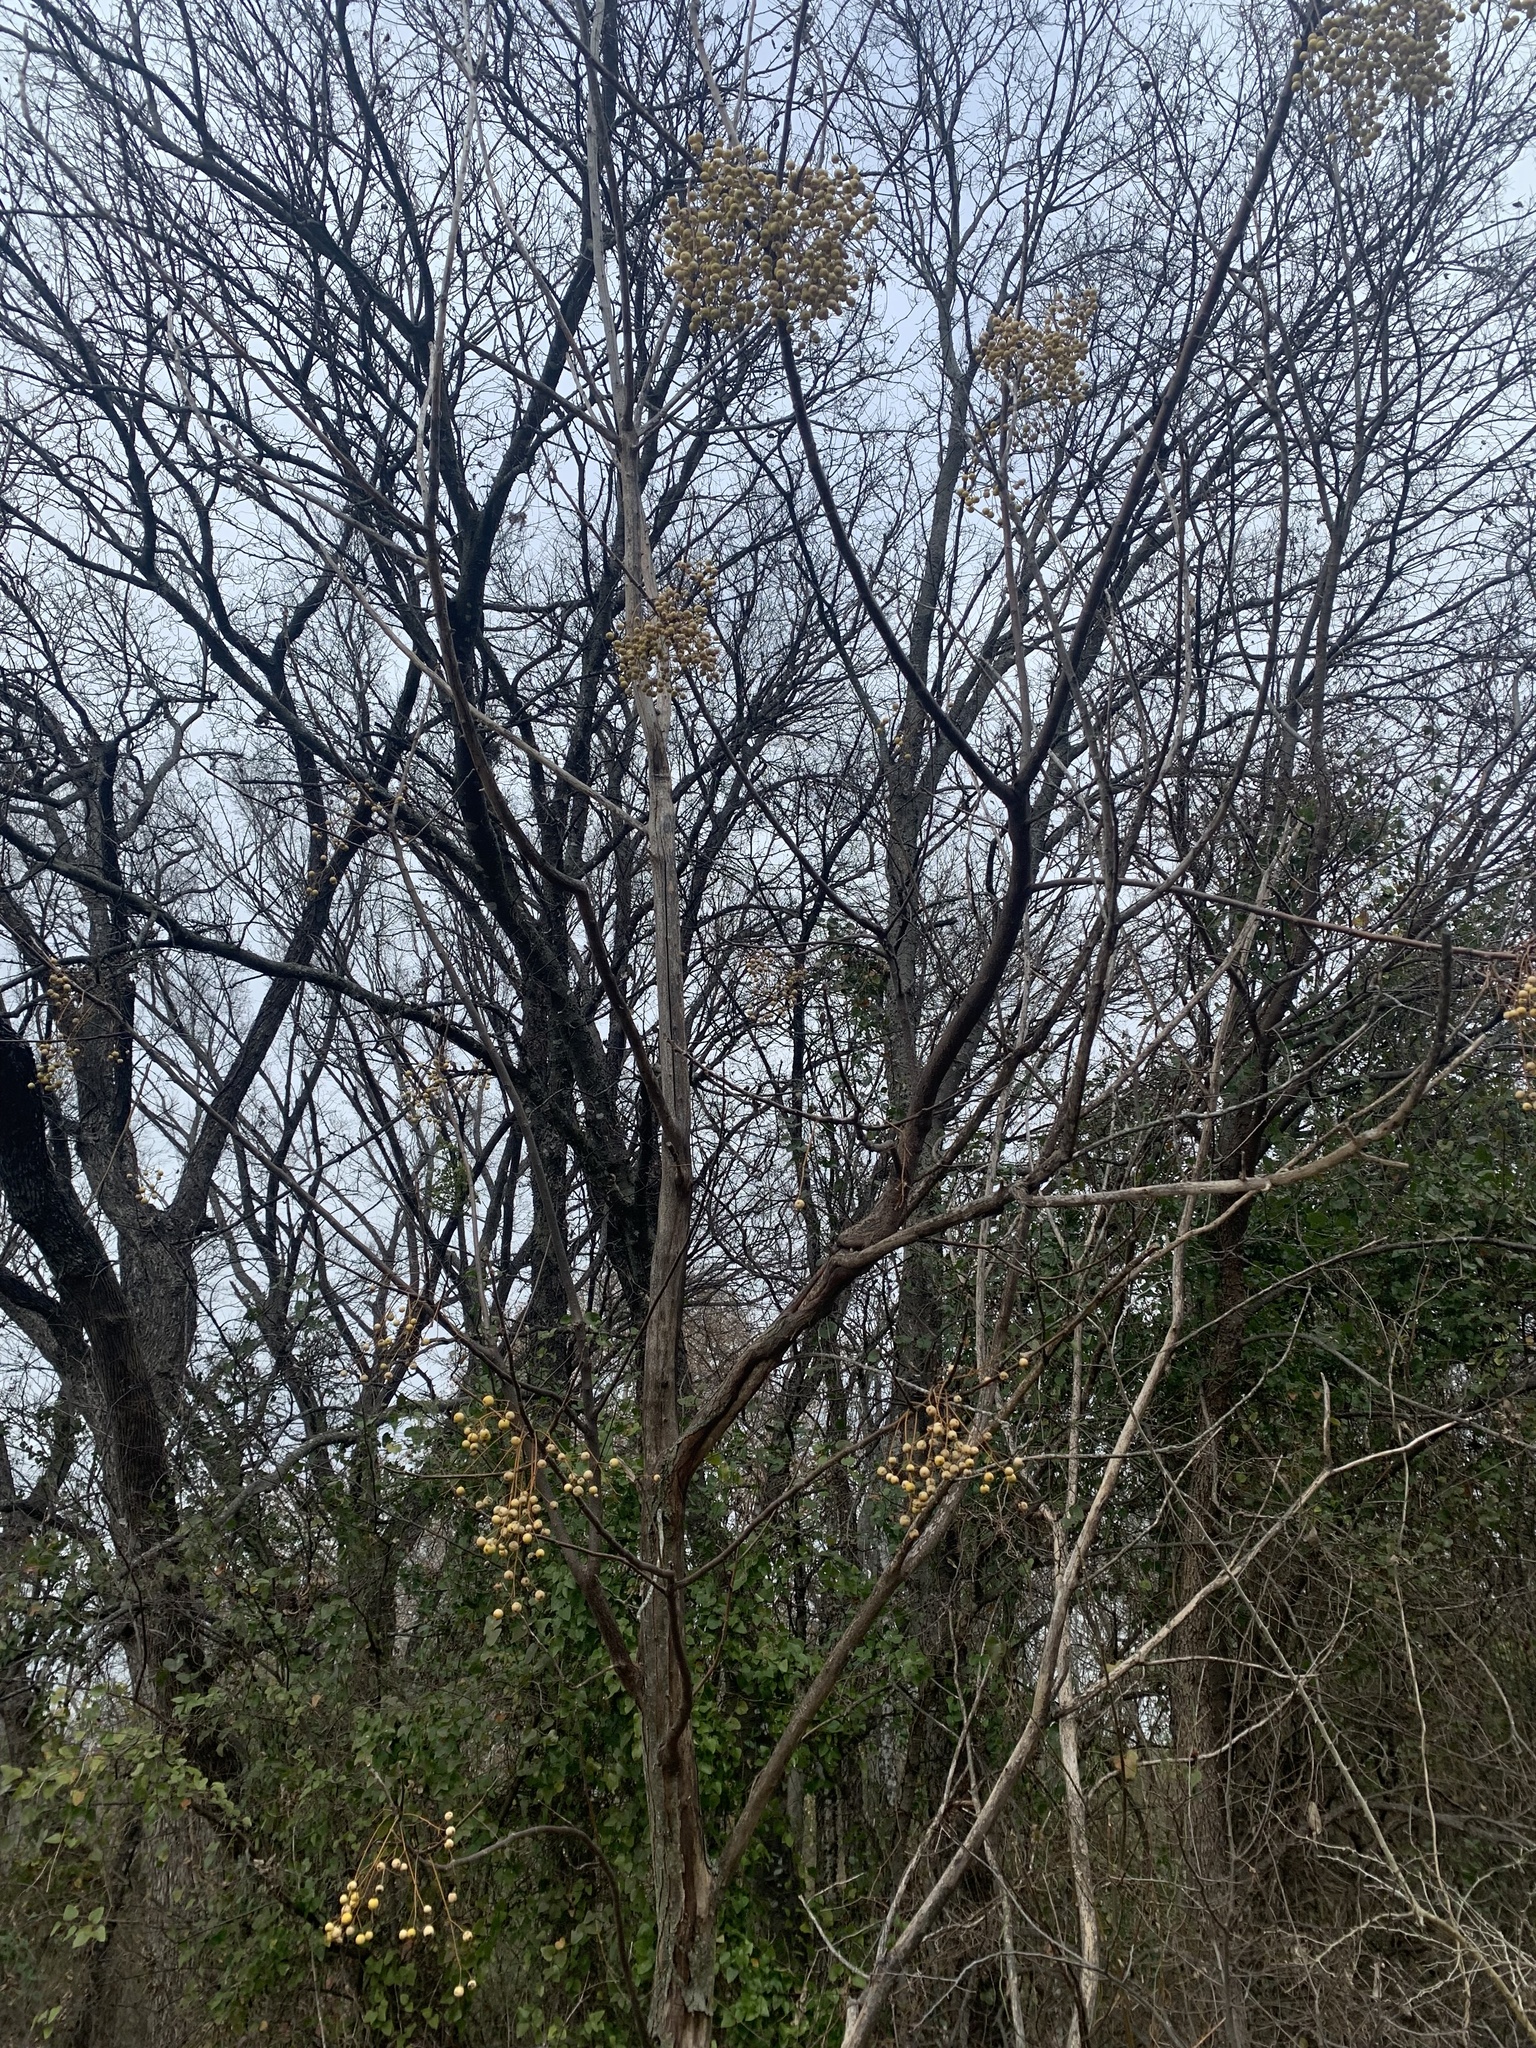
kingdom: Plantae
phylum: Tracheophyta
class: Magnoliopsida
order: Sapindales
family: Meliaceae
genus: Melia
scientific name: Melia azedarach
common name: Chinaberrytree
